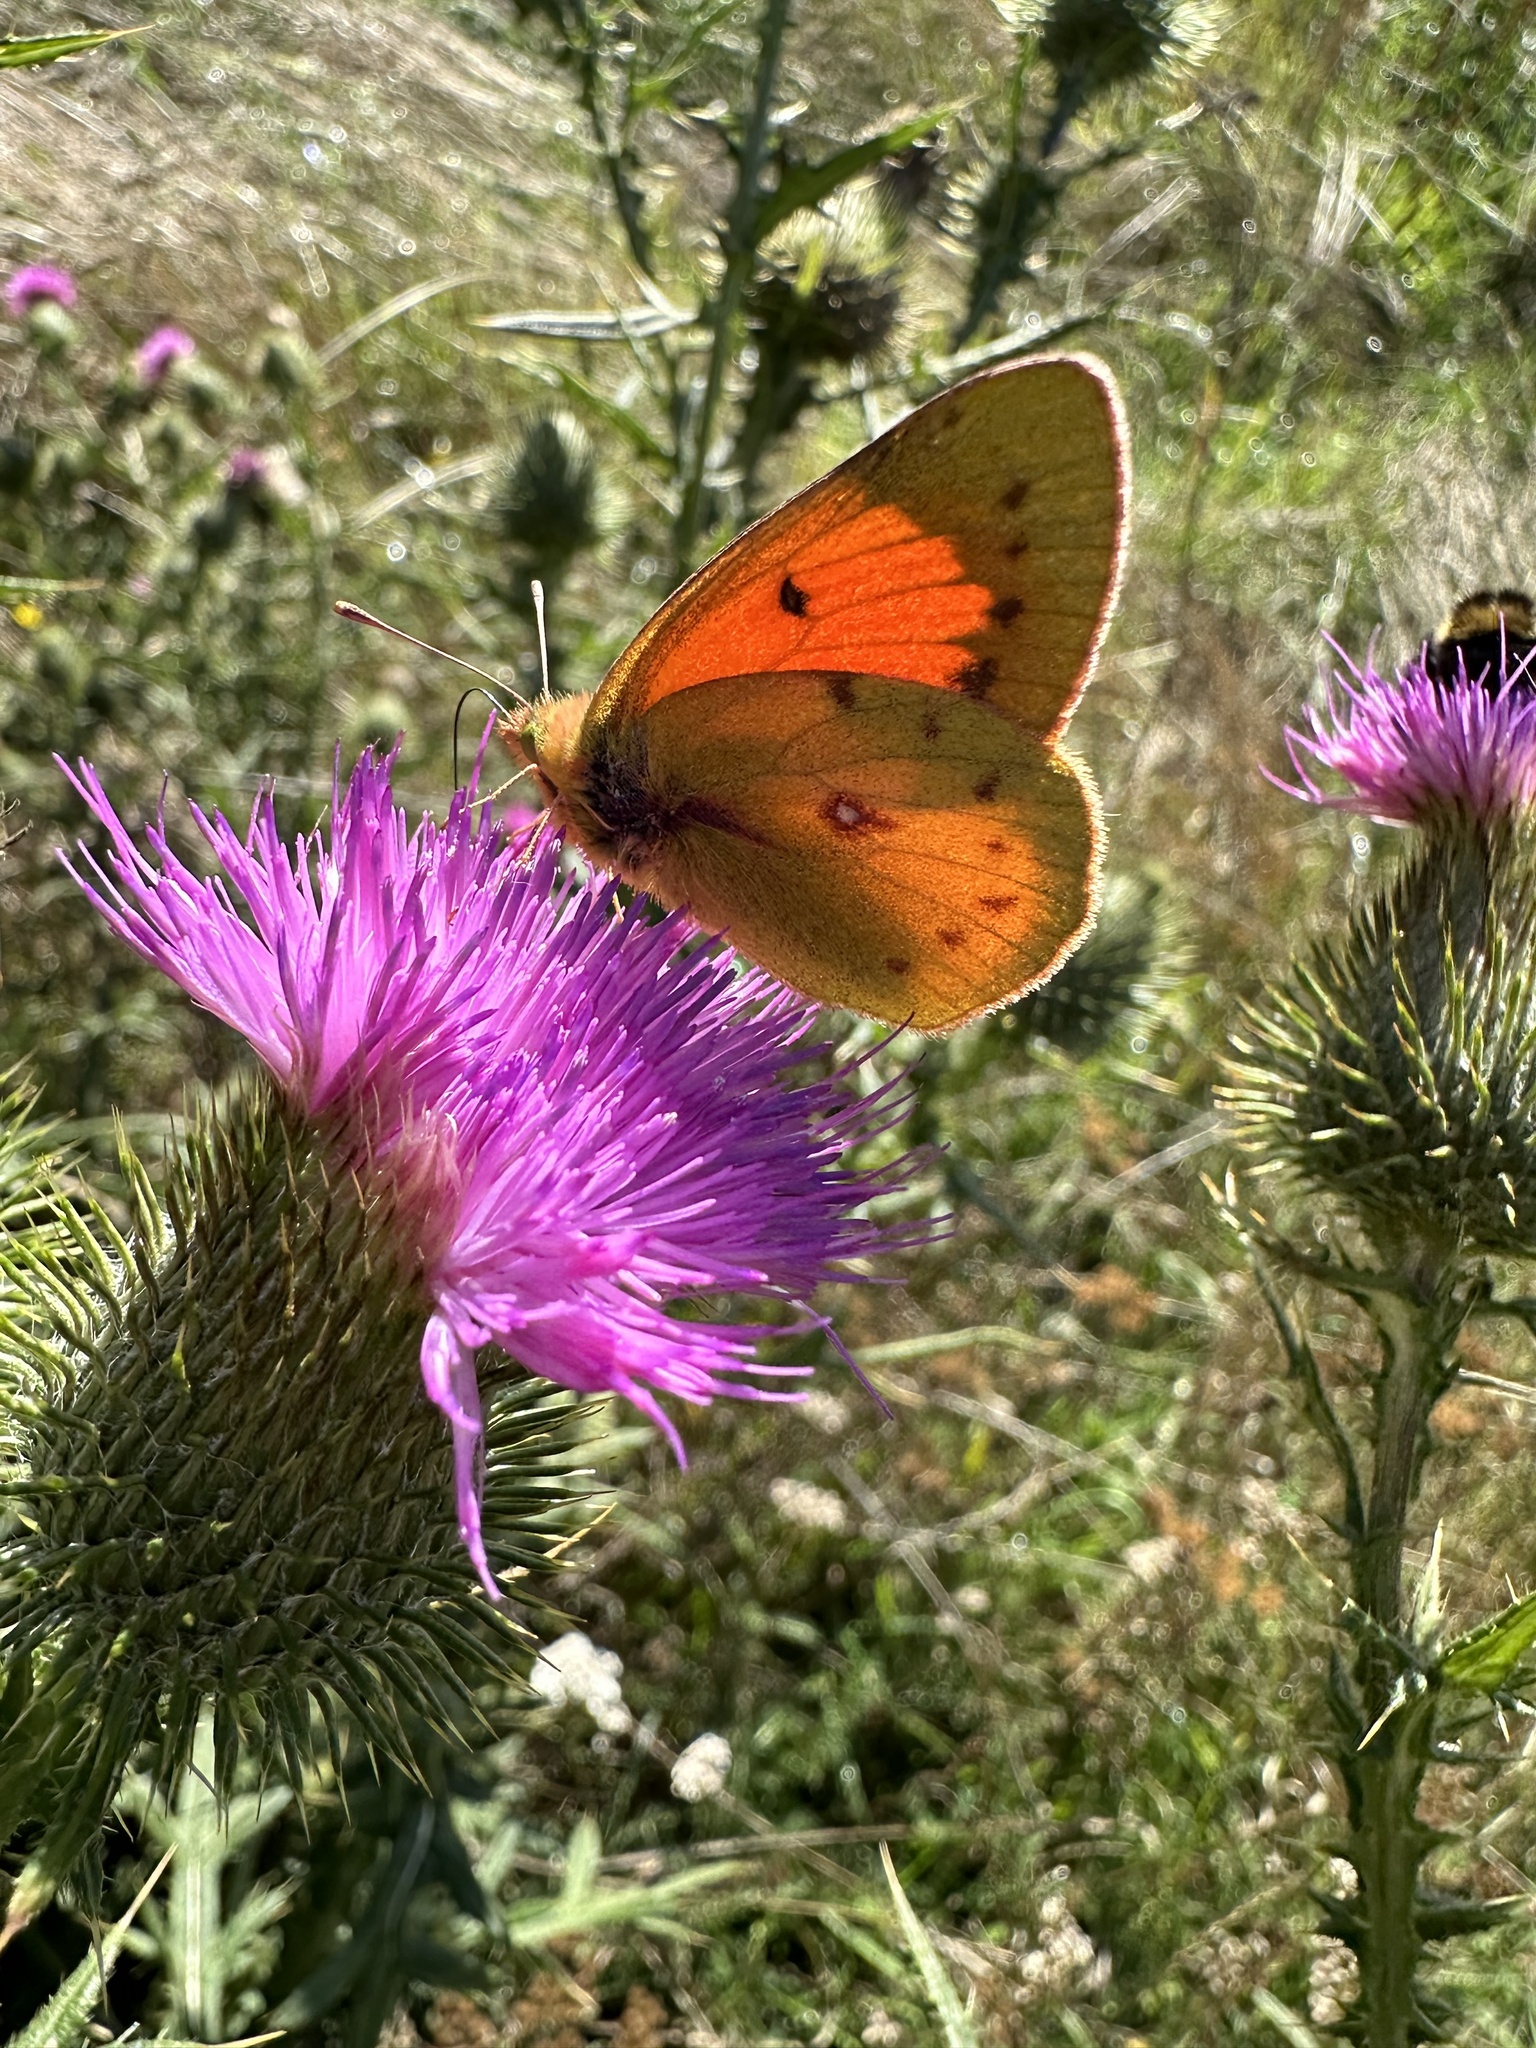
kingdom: Animalia
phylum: Arthropoda
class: Insecta
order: Lepidoptera
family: Pieridae
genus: Colias
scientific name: Colias vauthierii
